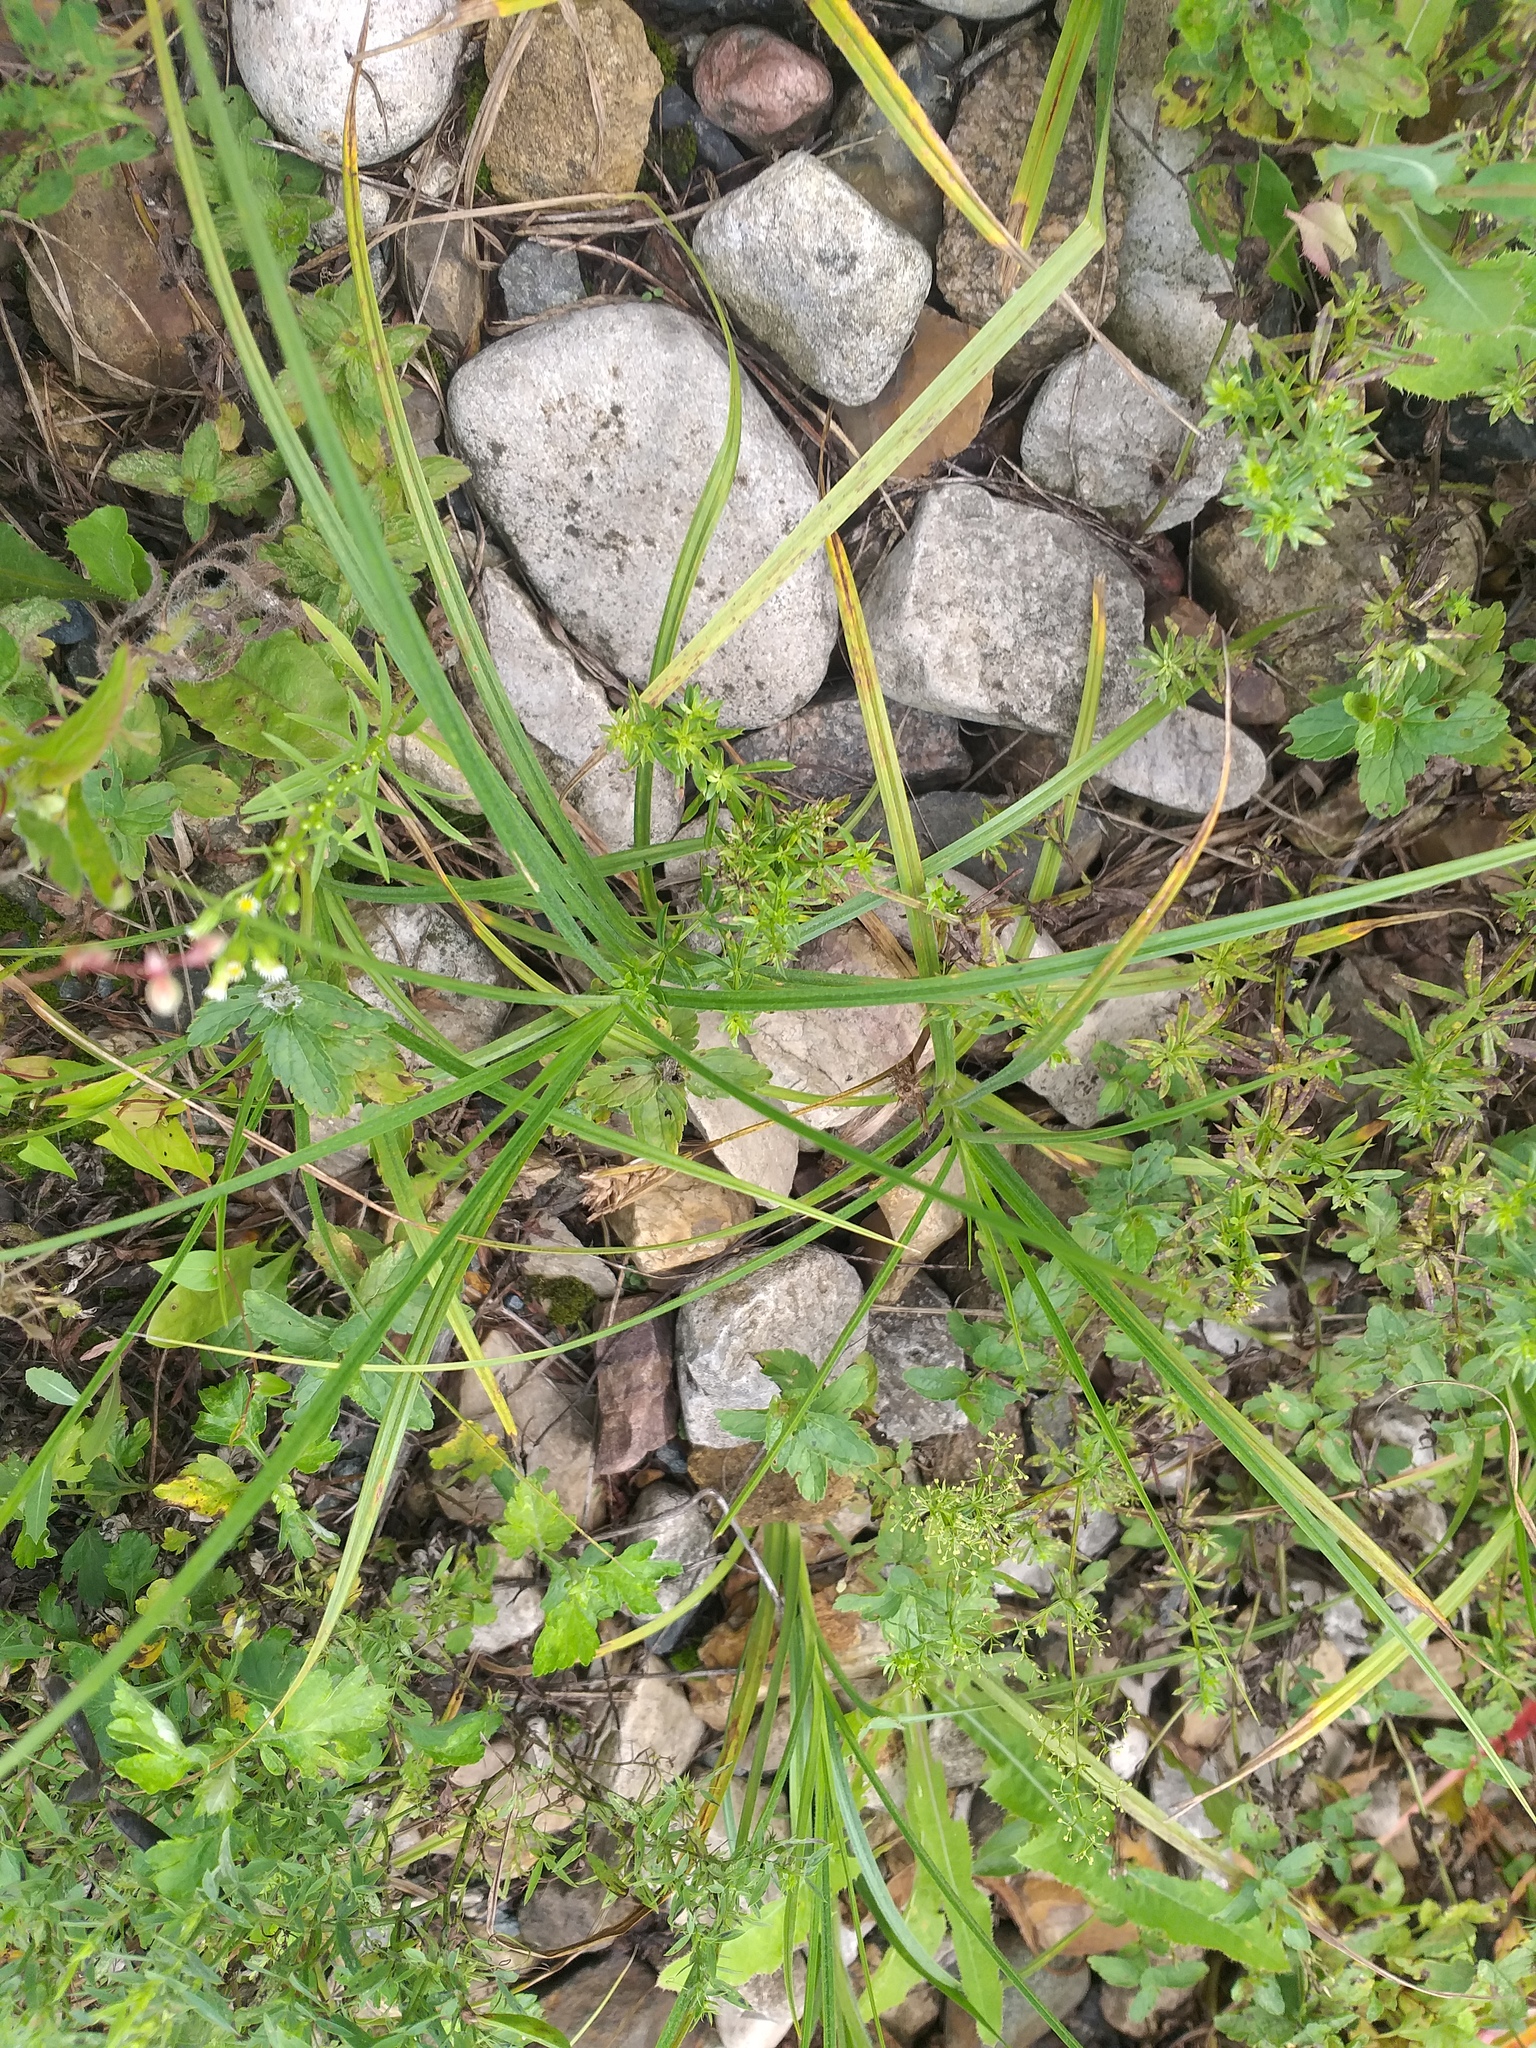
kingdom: Plantae
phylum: Tracheophyta
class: Liliopsida
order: Poales
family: Cyperaceae
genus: Carex
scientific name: Carex hirta
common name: Hairy sedge
